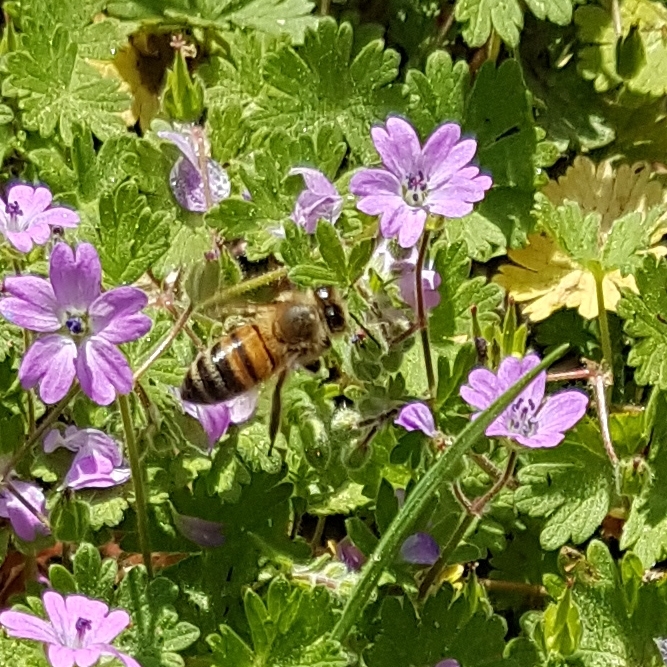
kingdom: Animalia
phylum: Arthropoda
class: Insecta
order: Hymenoptera
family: Apidae
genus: Apis
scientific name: Apis mellifera
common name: Honey bee
